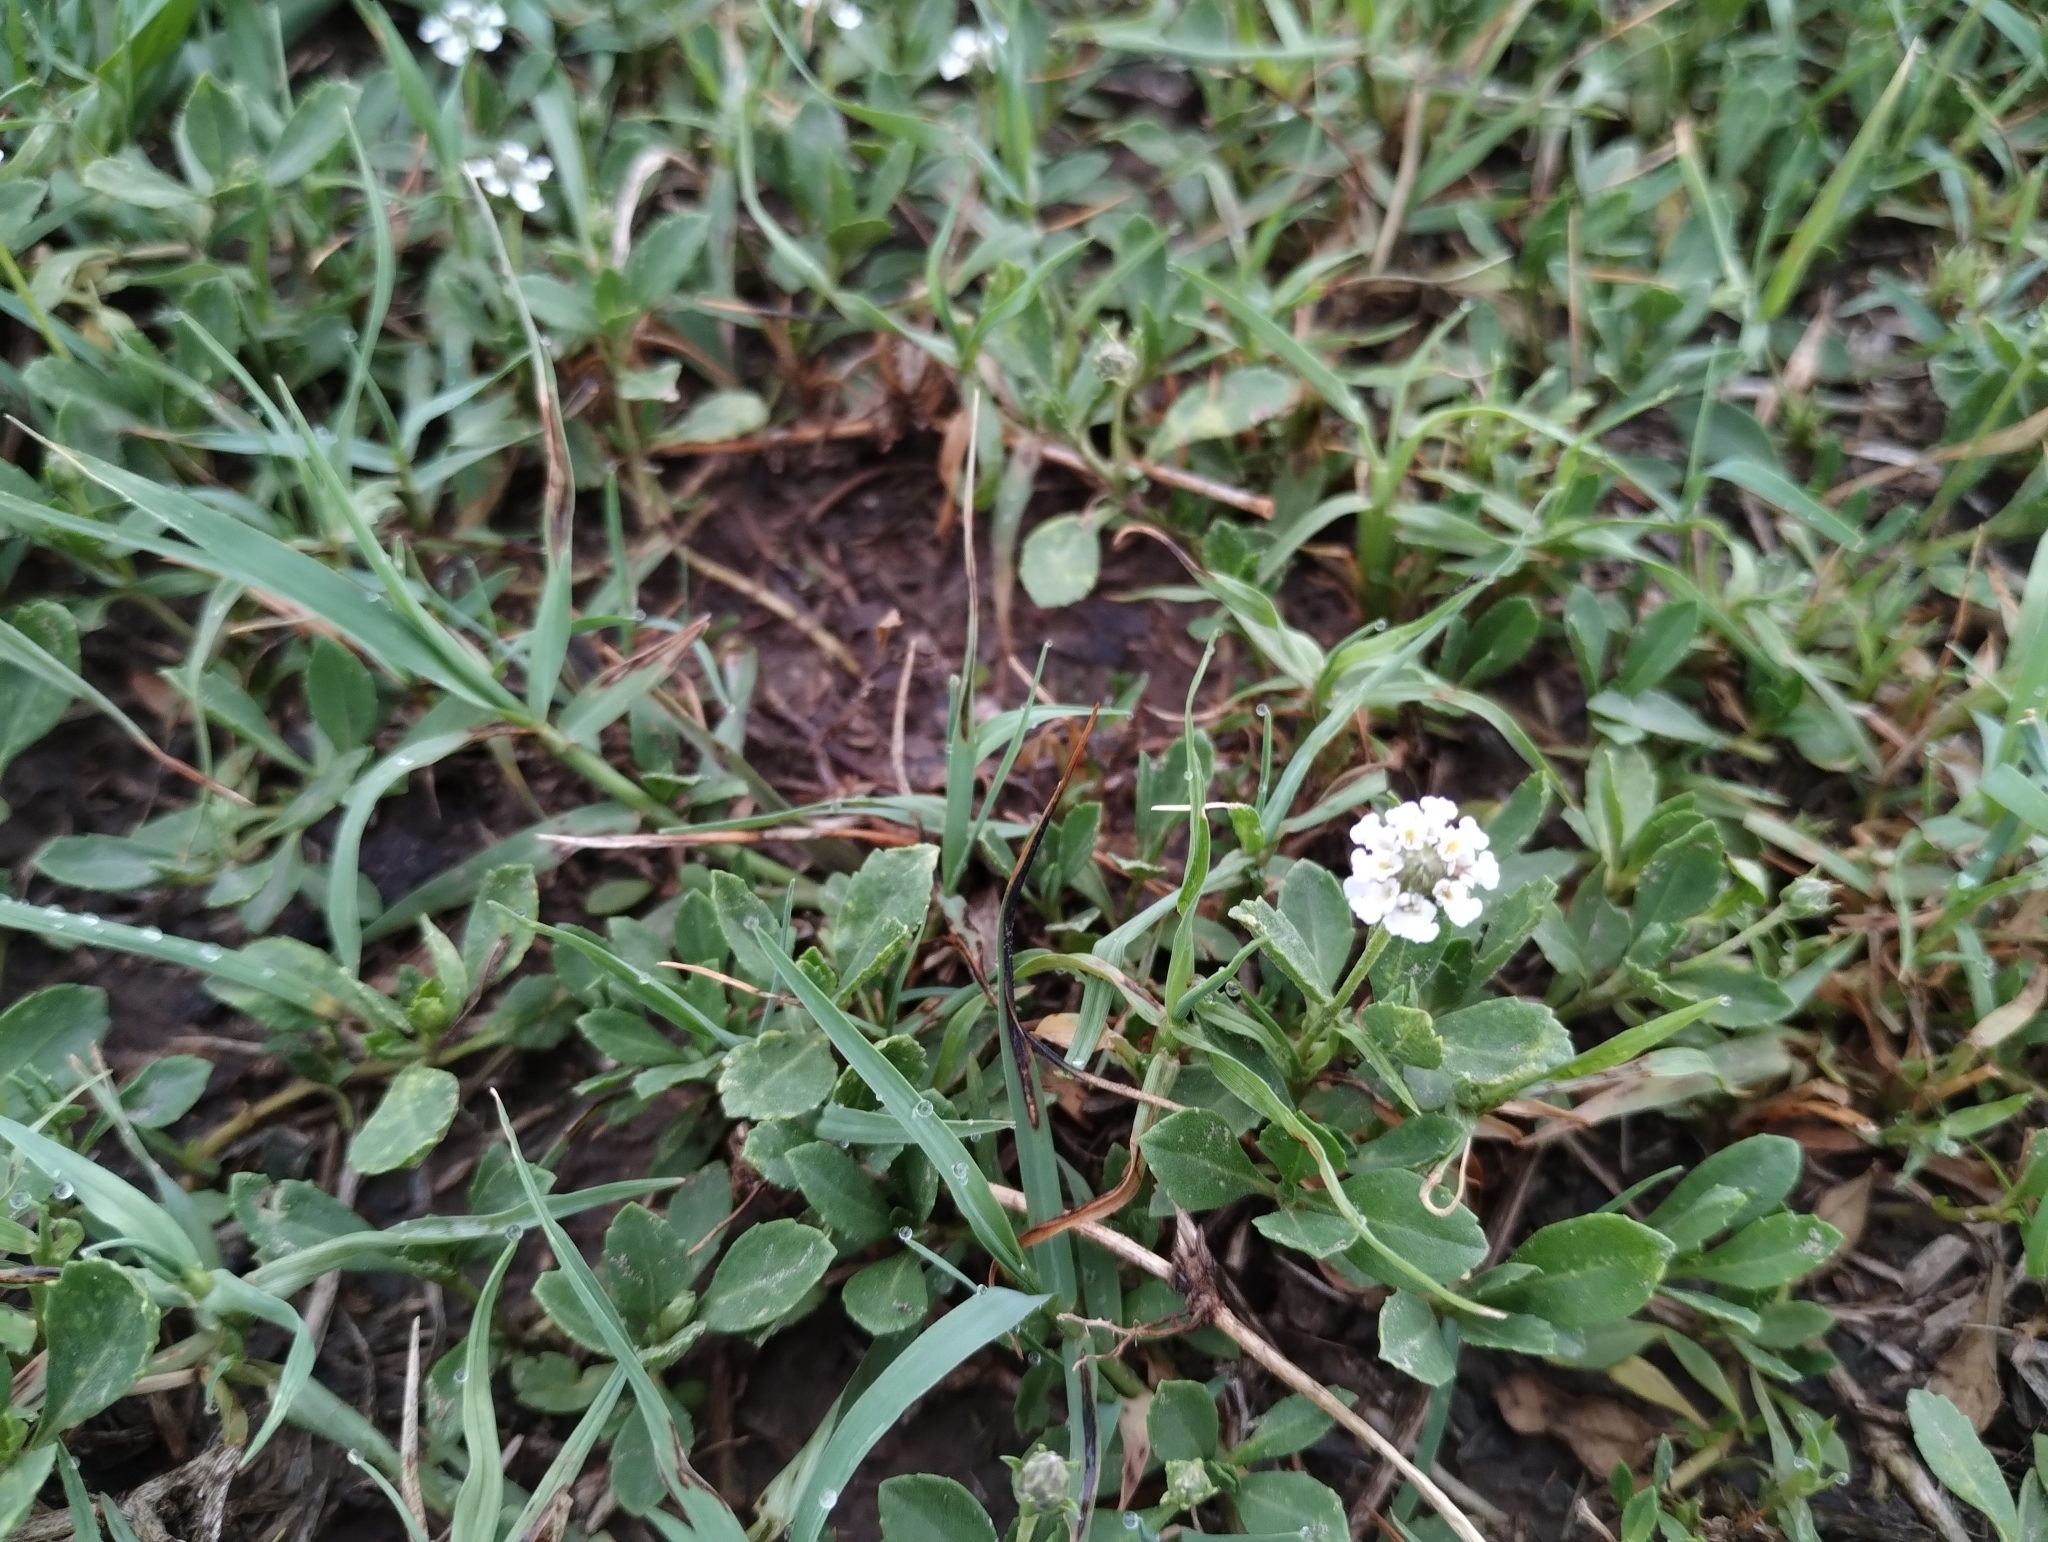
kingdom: Plantae
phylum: Tracheophyta
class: Magnoliopsida
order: Lamiales
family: Verbenaceae
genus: Phyla
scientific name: Phyla nodiflora
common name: Frogfruit
